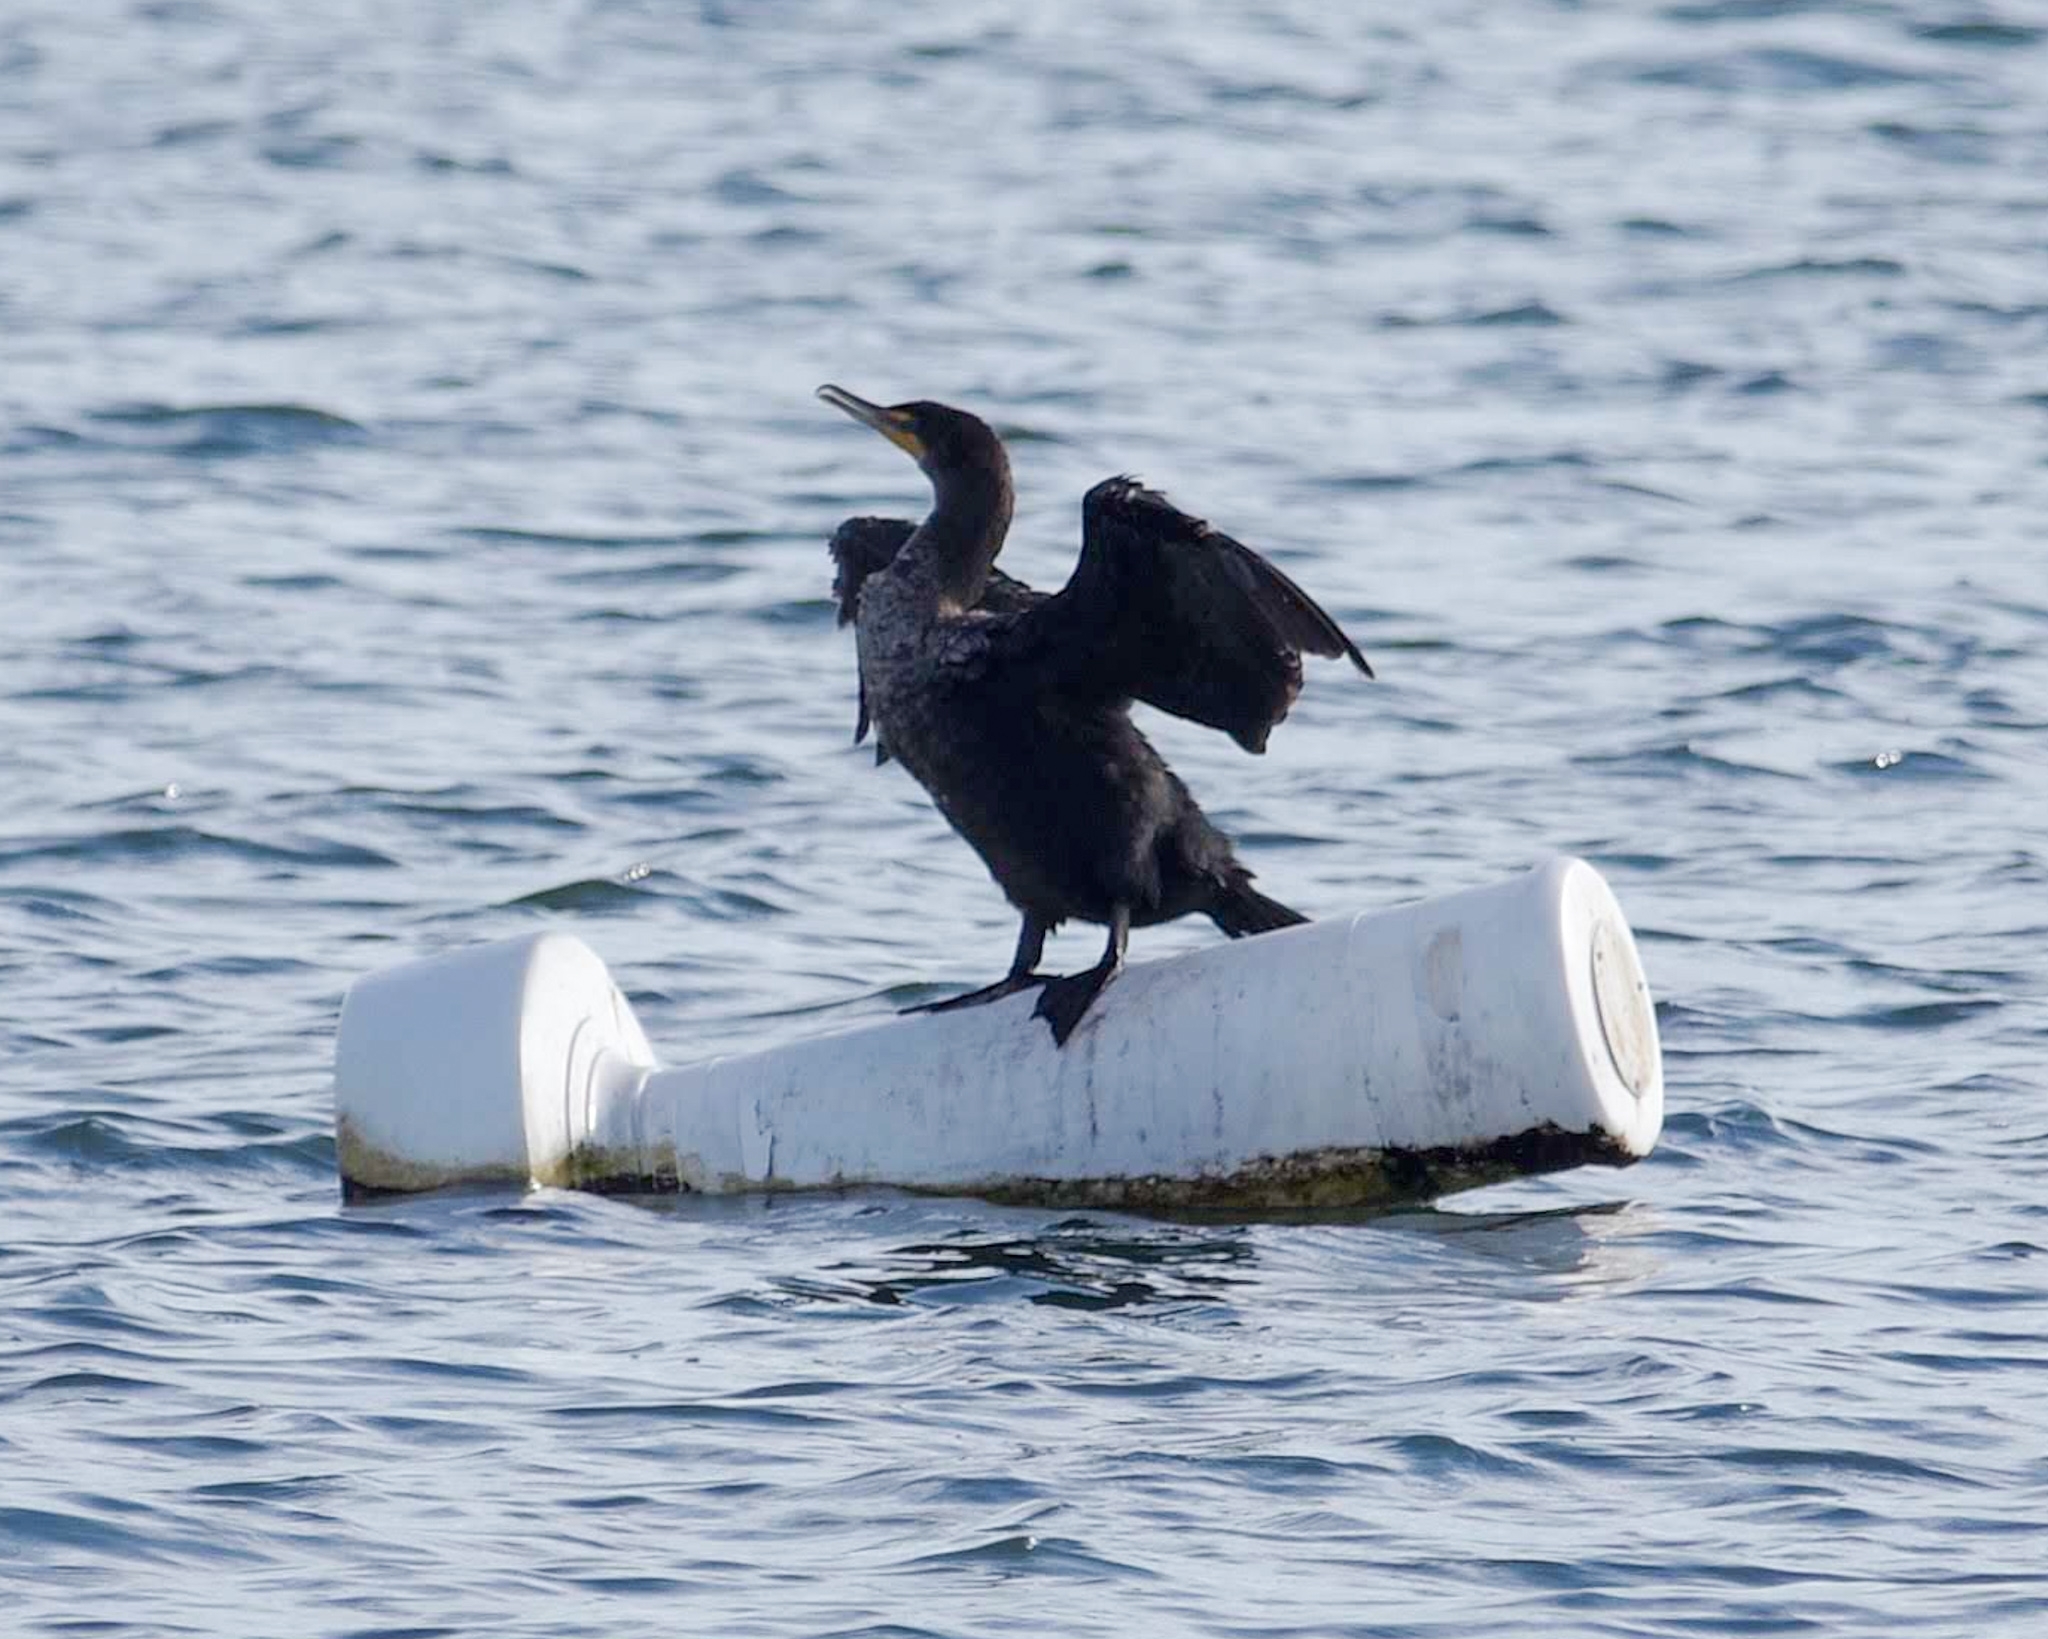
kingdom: Animalia
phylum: Chordata
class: Aves
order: Suliformes
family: Phalacrocoracidae
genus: Phalacrocorax
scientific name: Phalacrocorax auritus
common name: Double-crested cormorant
